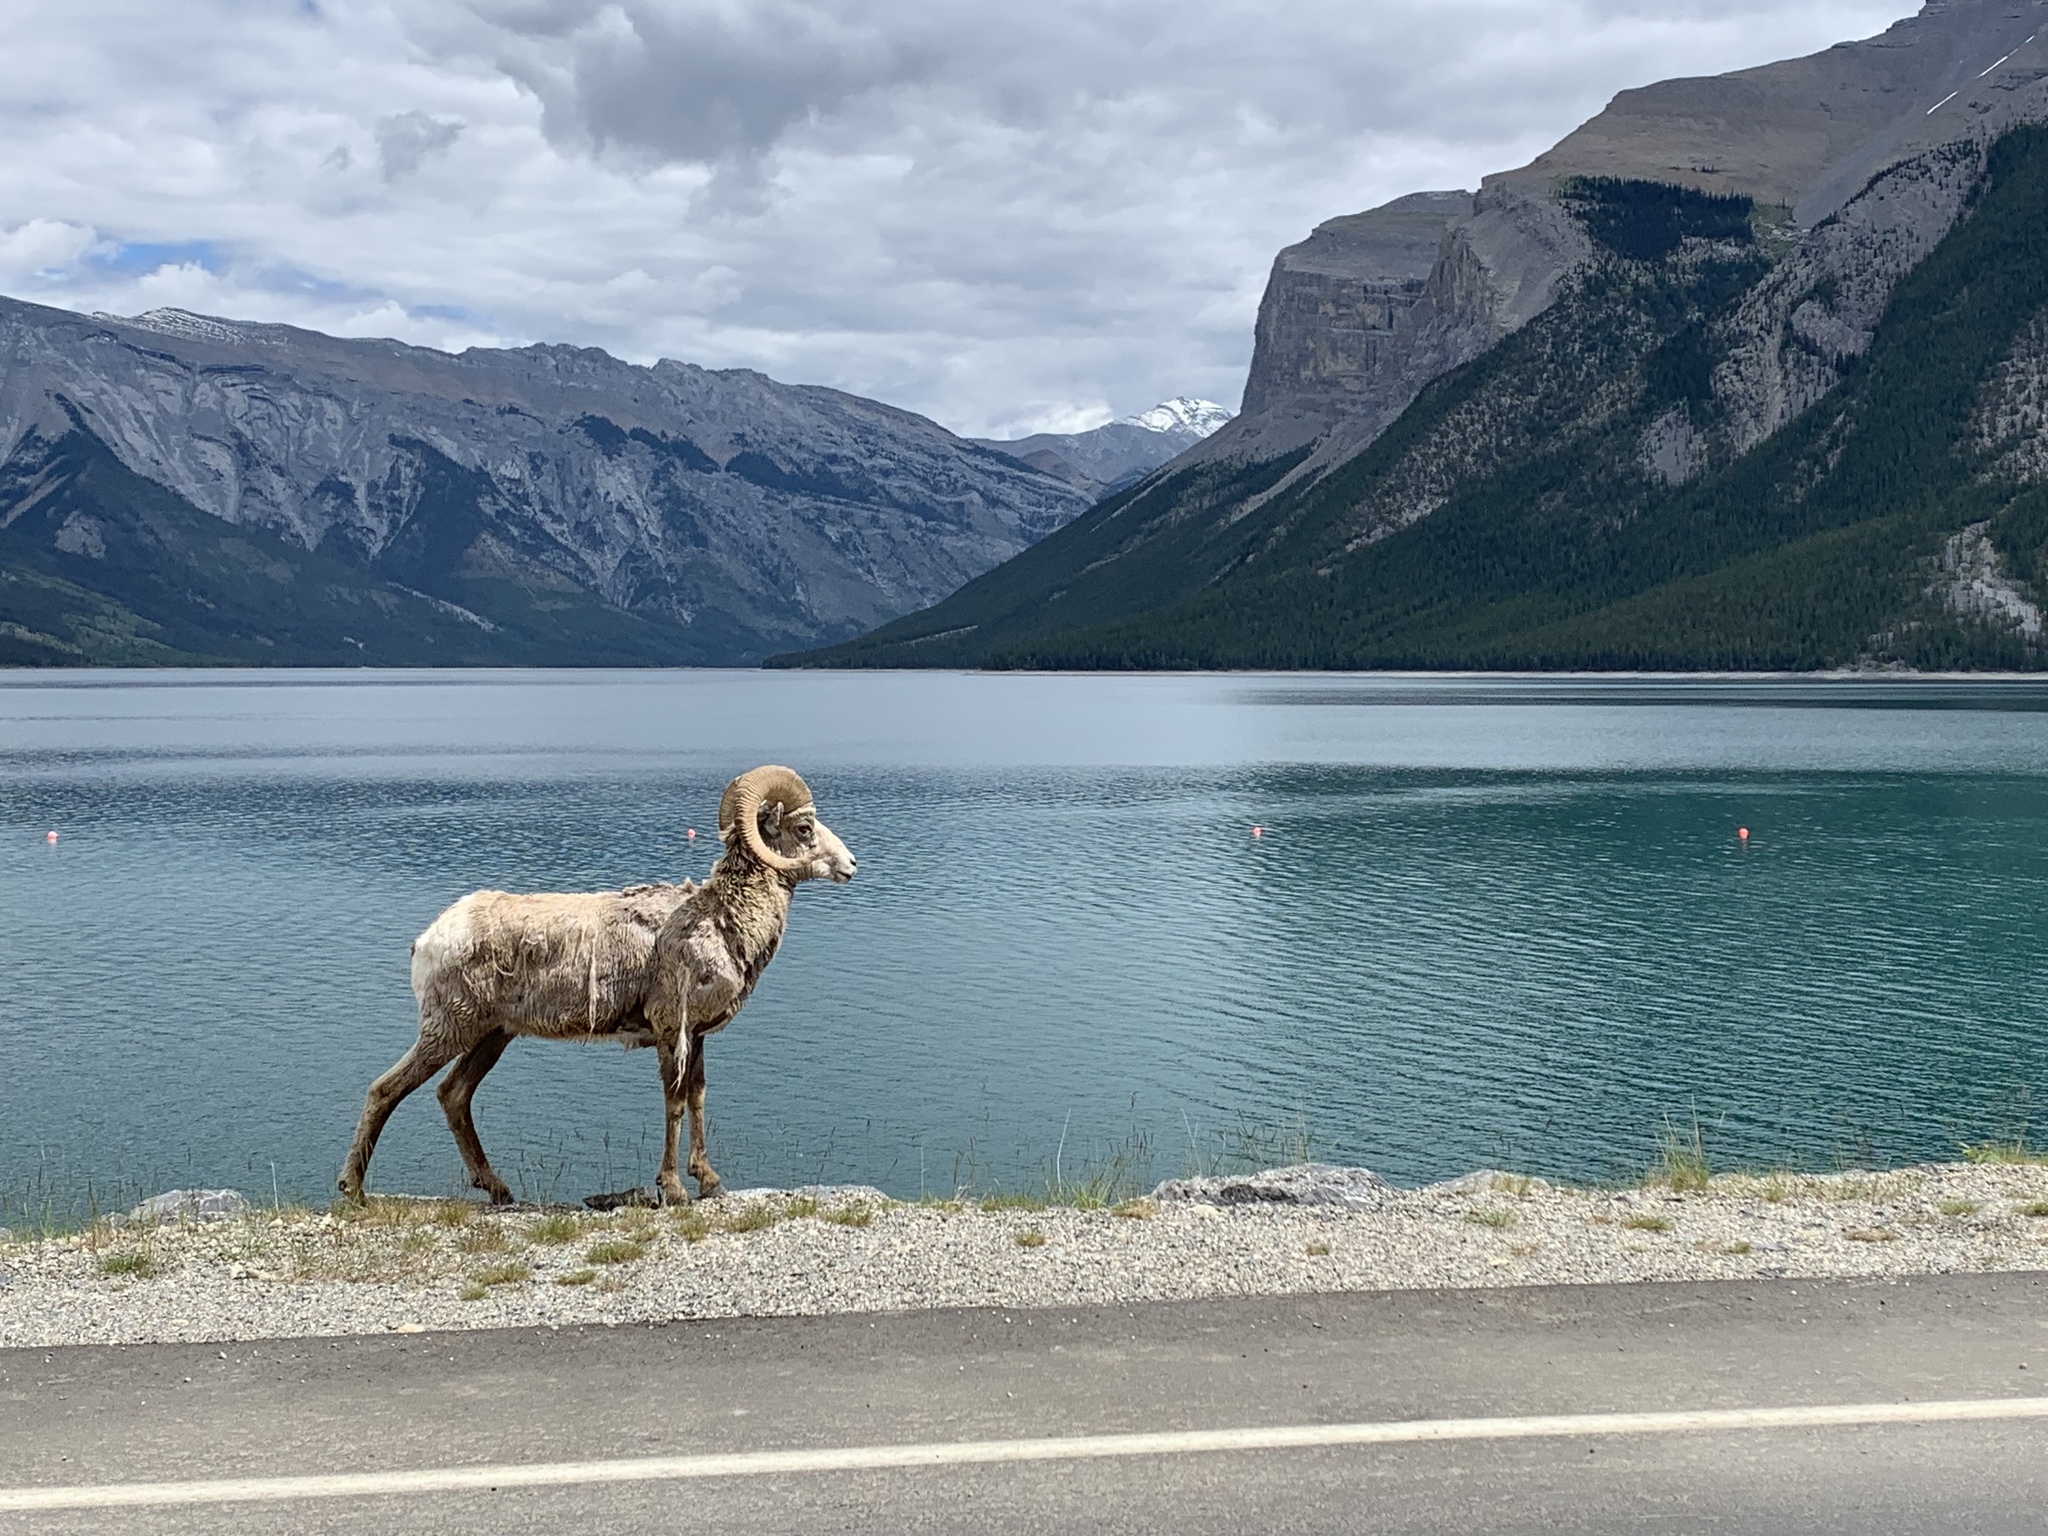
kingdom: Animalia
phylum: Chordata
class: Mammalia
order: Artiodactyla
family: Bovidae
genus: Ovis
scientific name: Ovis canadensis
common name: Bighorn sheep
